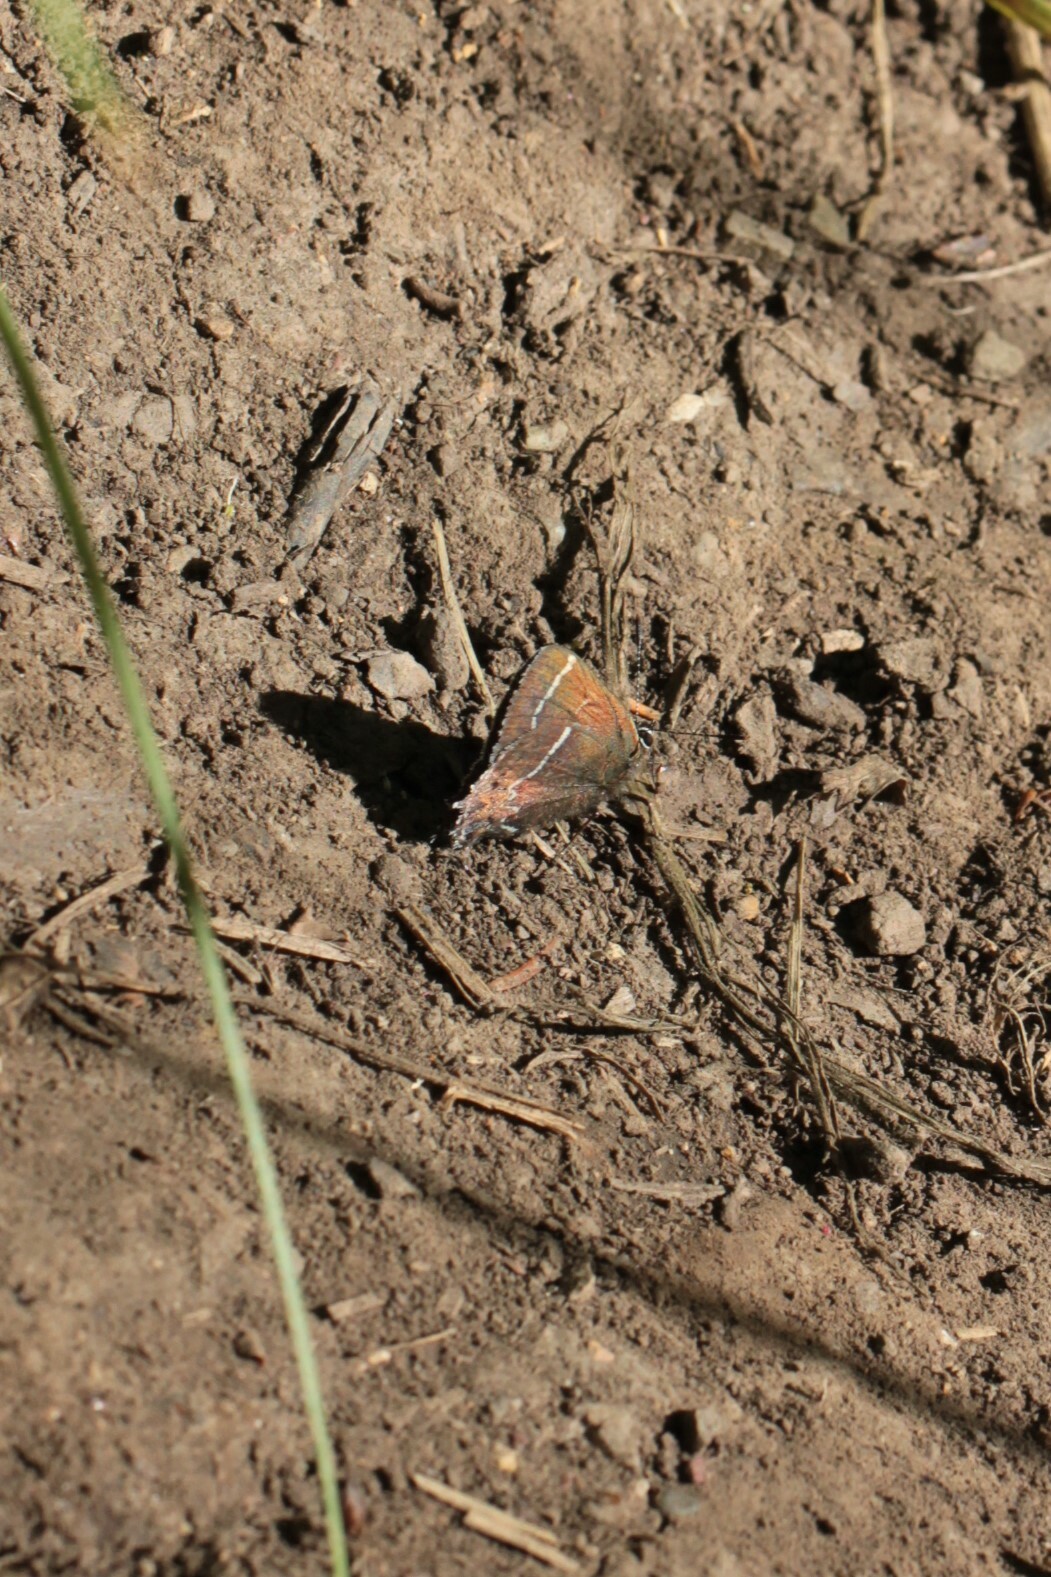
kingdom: Animalia
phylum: Arthropoda
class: Insecta
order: Lepidoptera
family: Lycaenidae
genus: Mitoura
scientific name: Mitoura spinetorum
